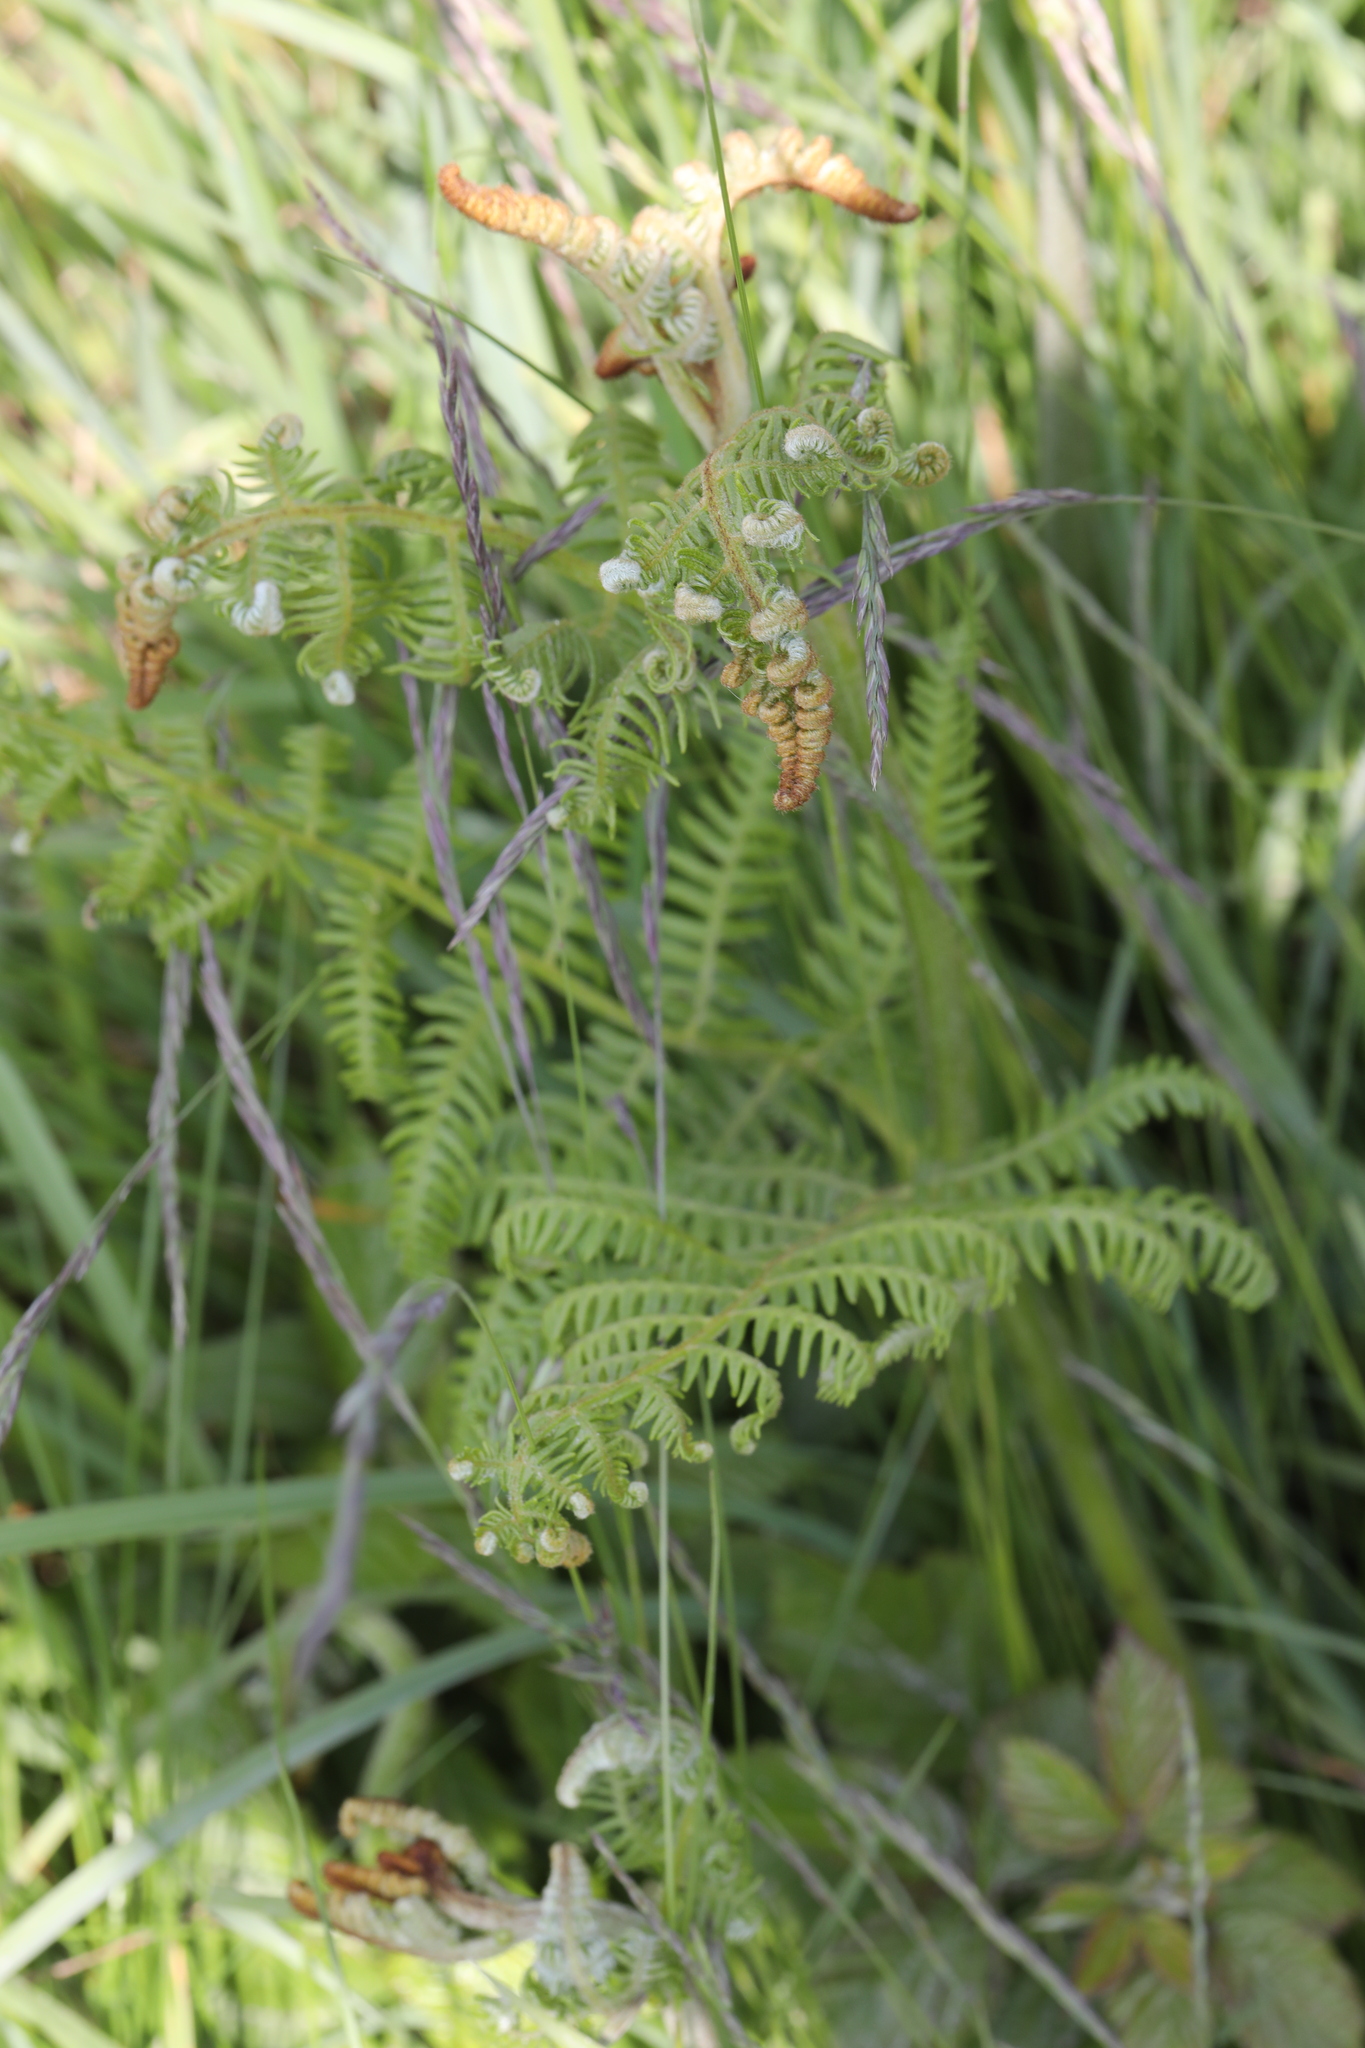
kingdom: Plantae
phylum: Tracheophyta
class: Polypodiopsida
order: Polypodiales
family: Dennstaedtiaceae
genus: Pteridium
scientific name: Pteridium aquilinum
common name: Bracken
